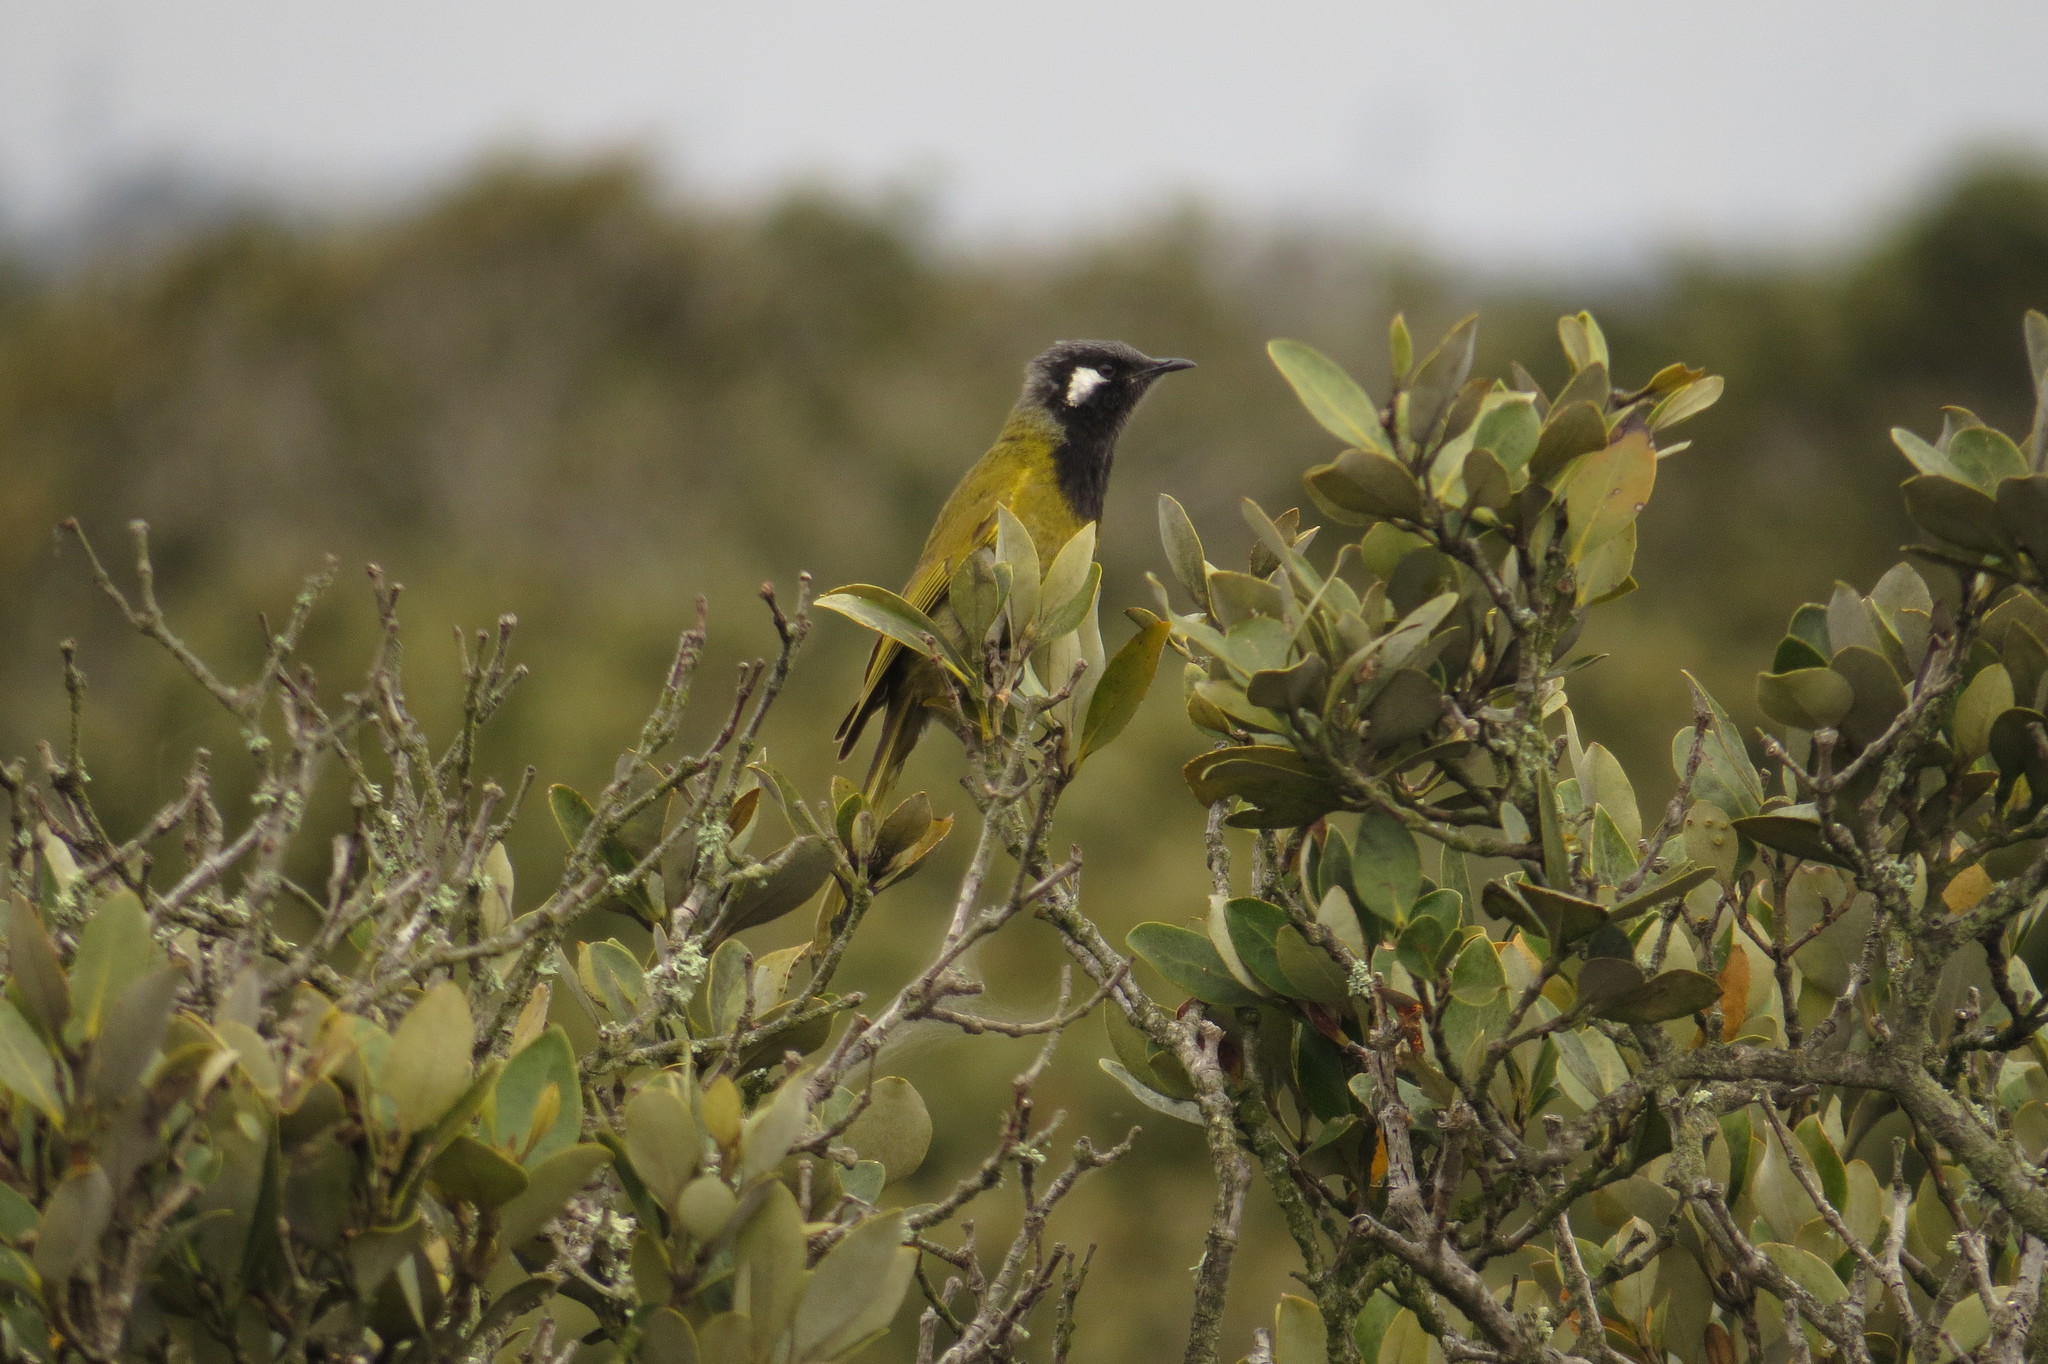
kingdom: Animalia
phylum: Chordata
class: Aves
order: Passeriformes
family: Meliphagidae
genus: Nesoptilotis
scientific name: Nesoptilotis leucotis
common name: White-eared honeyeater
